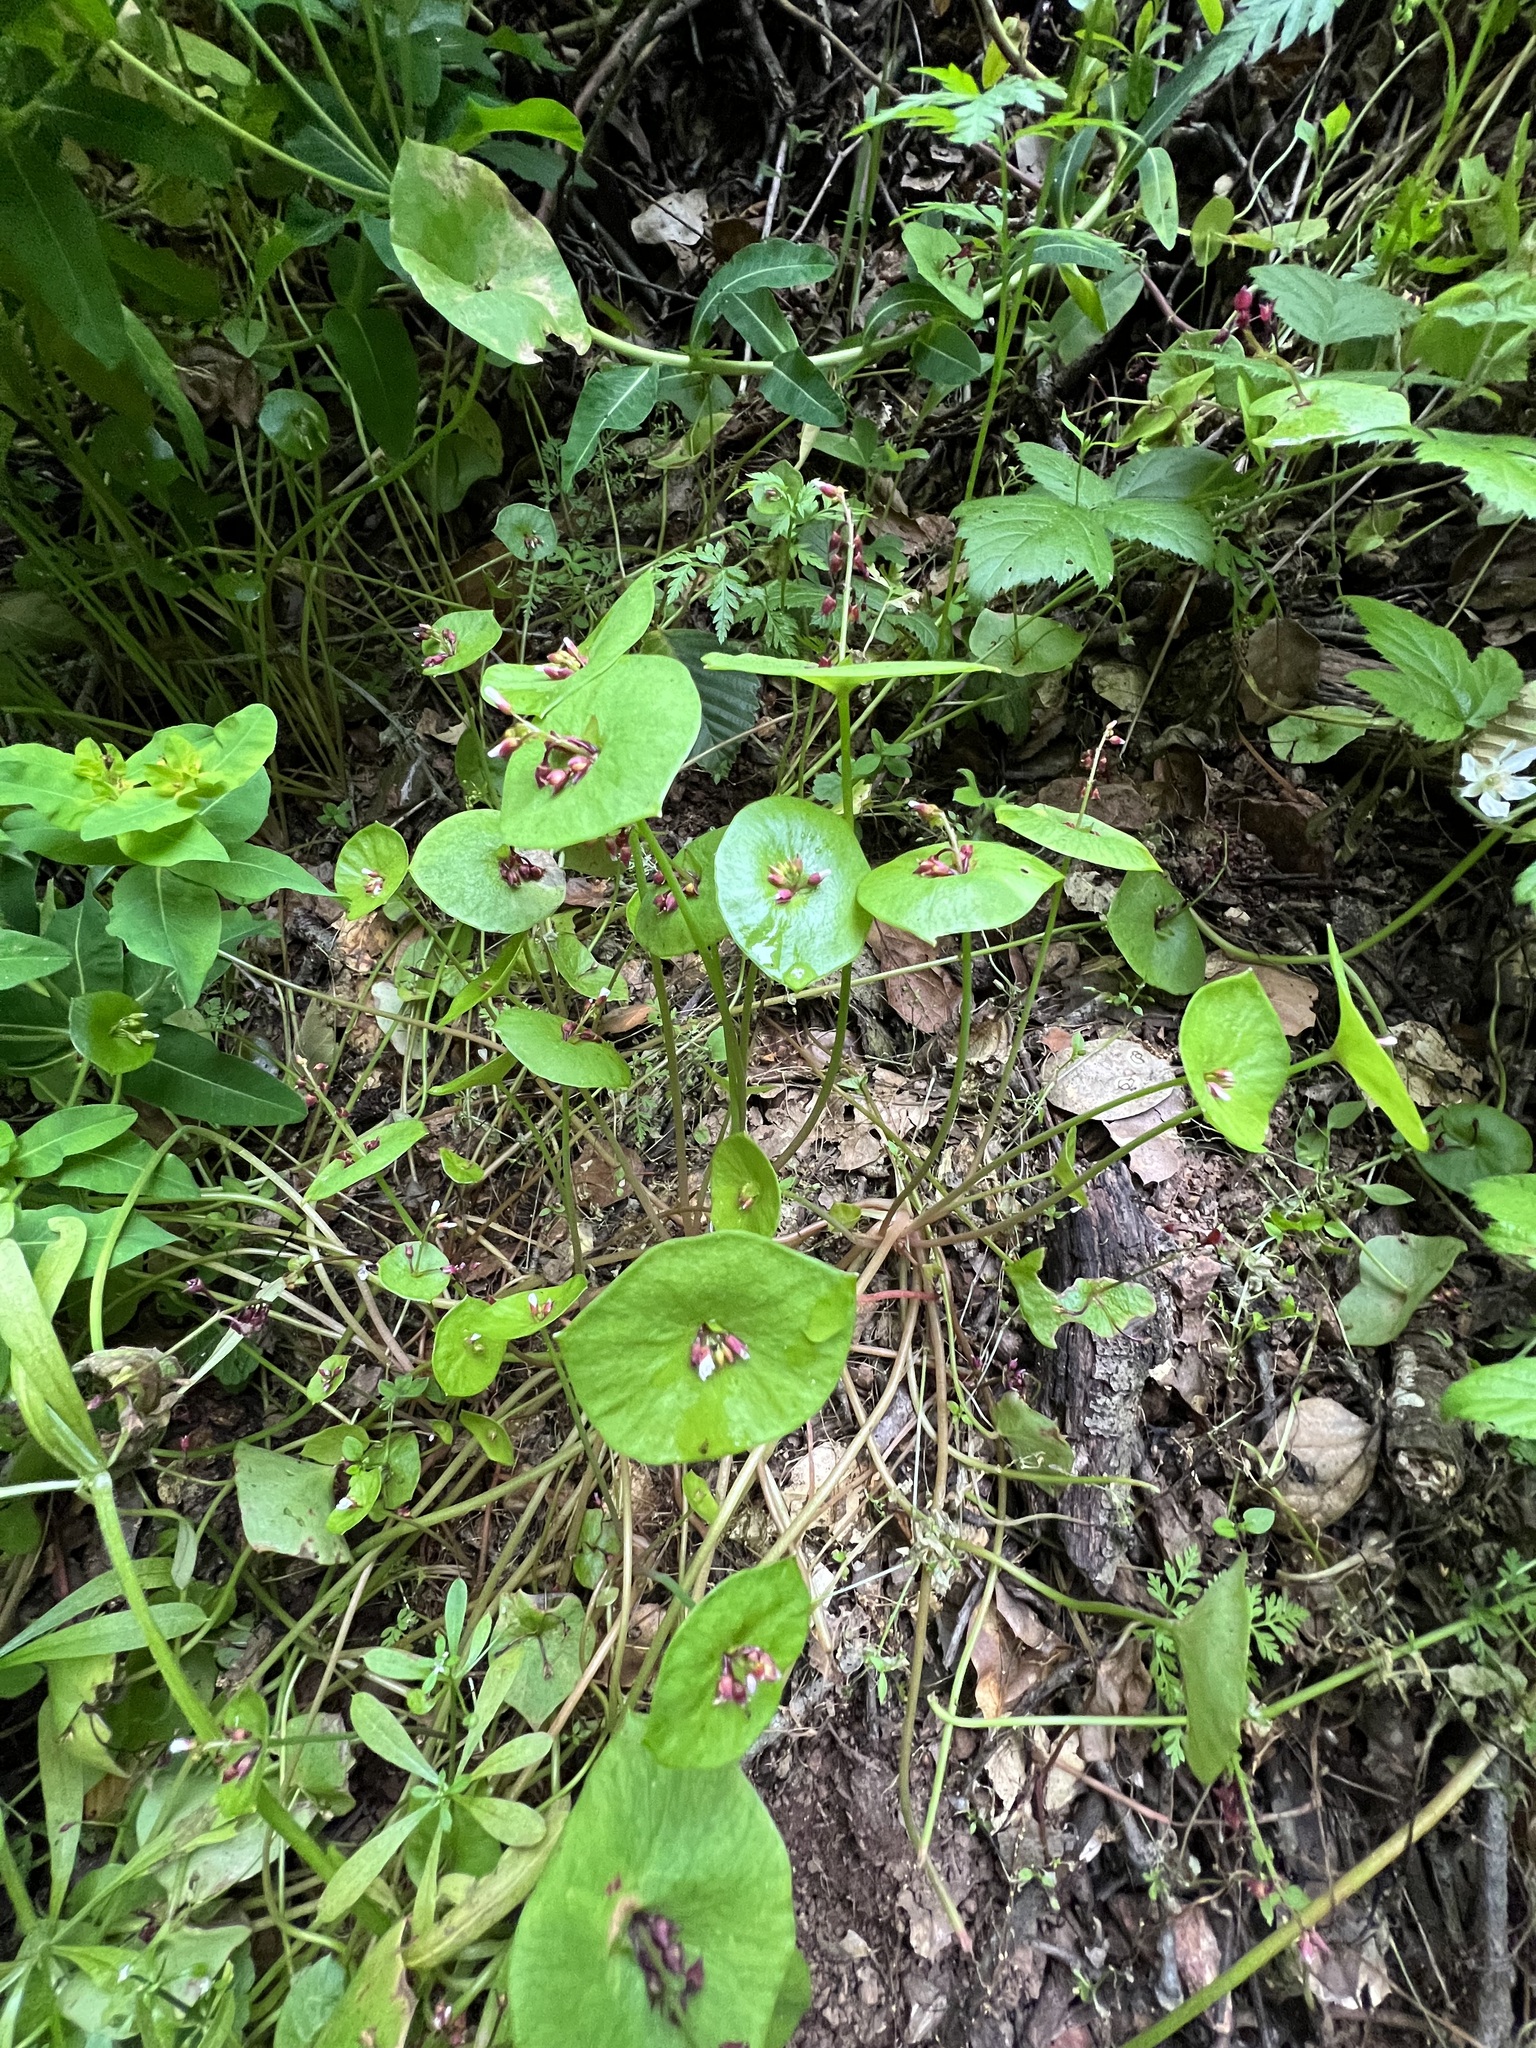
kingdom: Plantae
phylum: Tracheophyta
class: Magnoliopsida
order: Caryophyllales
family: Montiaceae
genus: Claytonia
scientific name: Claytonia perfoliata
